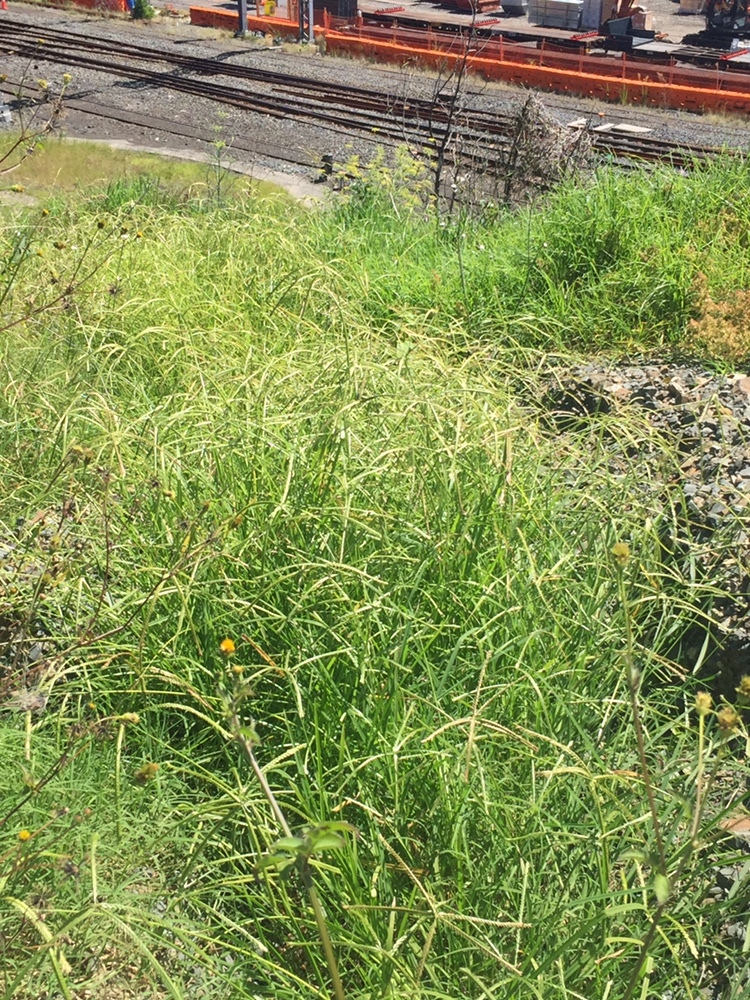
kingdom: Plantae
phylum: Tracheophyta
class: Liliopsida
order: Poales
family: Poaceae
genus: Eleusine
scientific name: Eleusine indica
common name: Yard-grass
